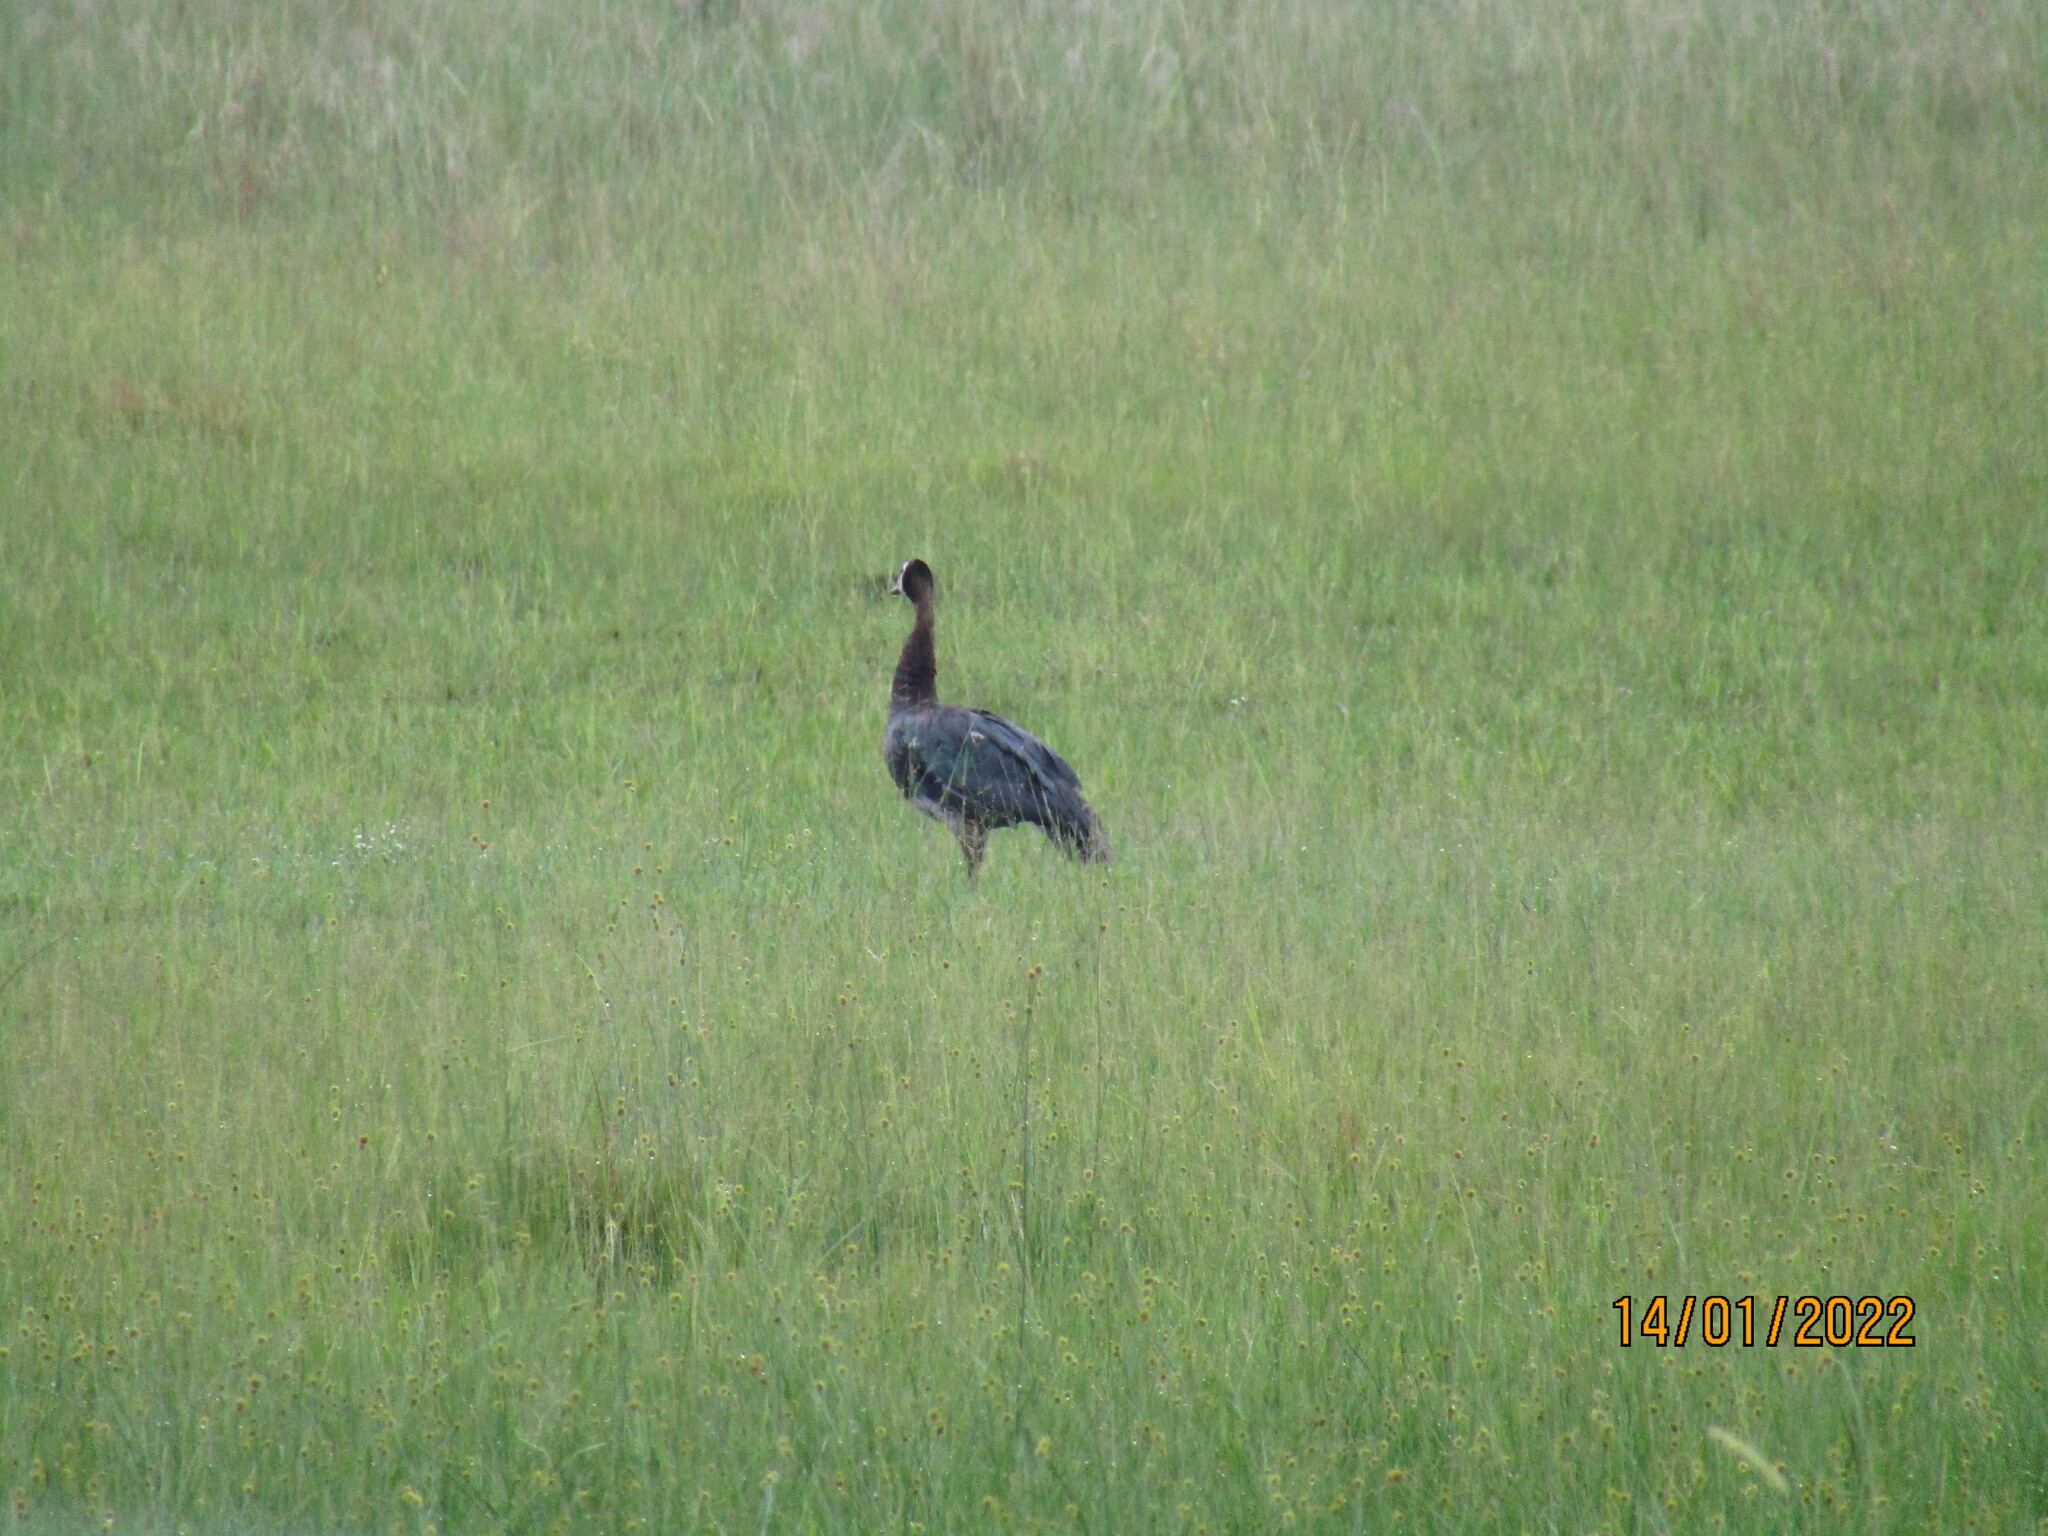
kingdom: Animalia
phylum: Chordata
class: Aves
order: Anseriformes
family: Anatidae
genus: Plectropterus
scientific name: Plectropterus gambensis
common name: Spur-winged goose
